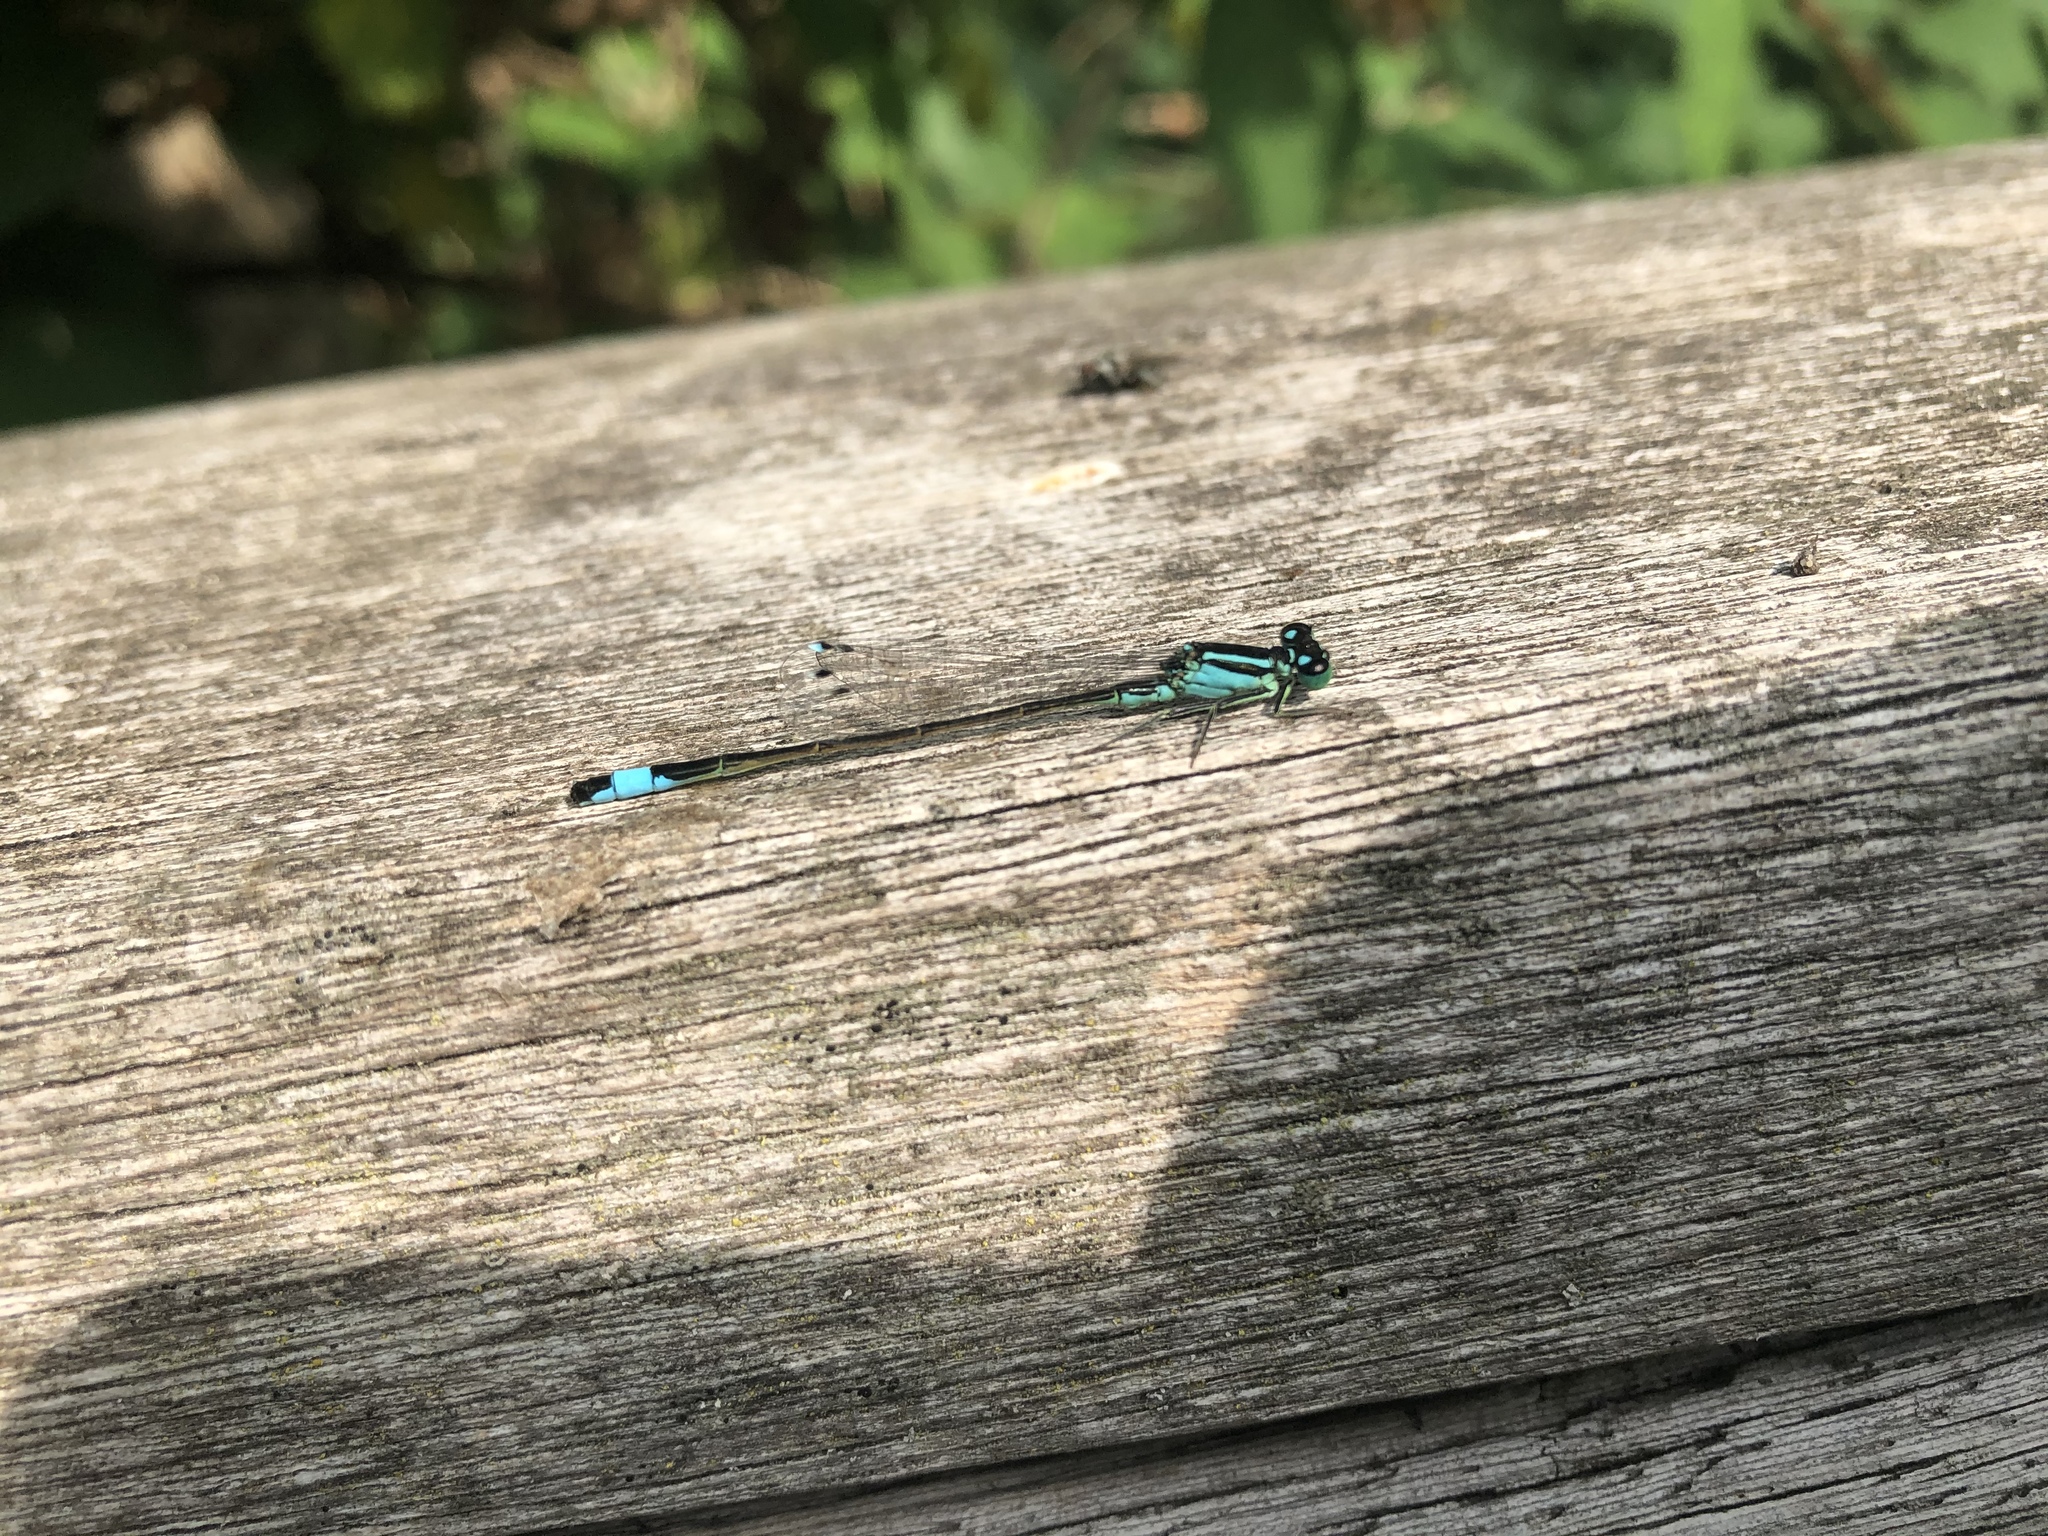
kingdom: Animalia
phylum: Arthropoda
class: Insecta
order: Odonata
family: Coenagrionidae
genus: Ischnura
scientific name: Ischnura elegans
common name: Blue-tailed damselfly
